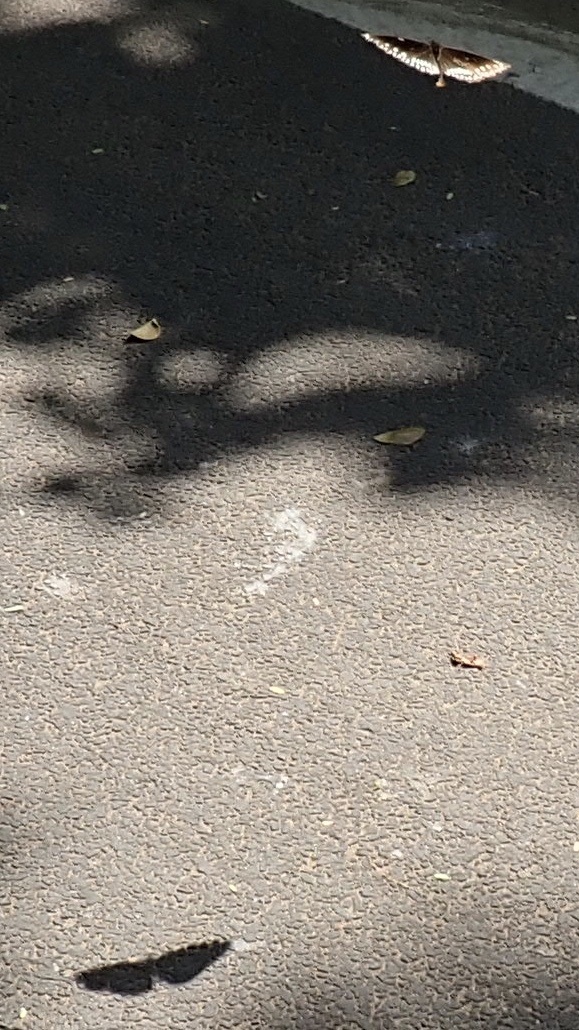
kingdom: Animalia
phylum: Arthropoda
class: Insecta
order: Lepidoptera
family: Nymphalidae
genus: Euploea
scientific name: Euploea core
